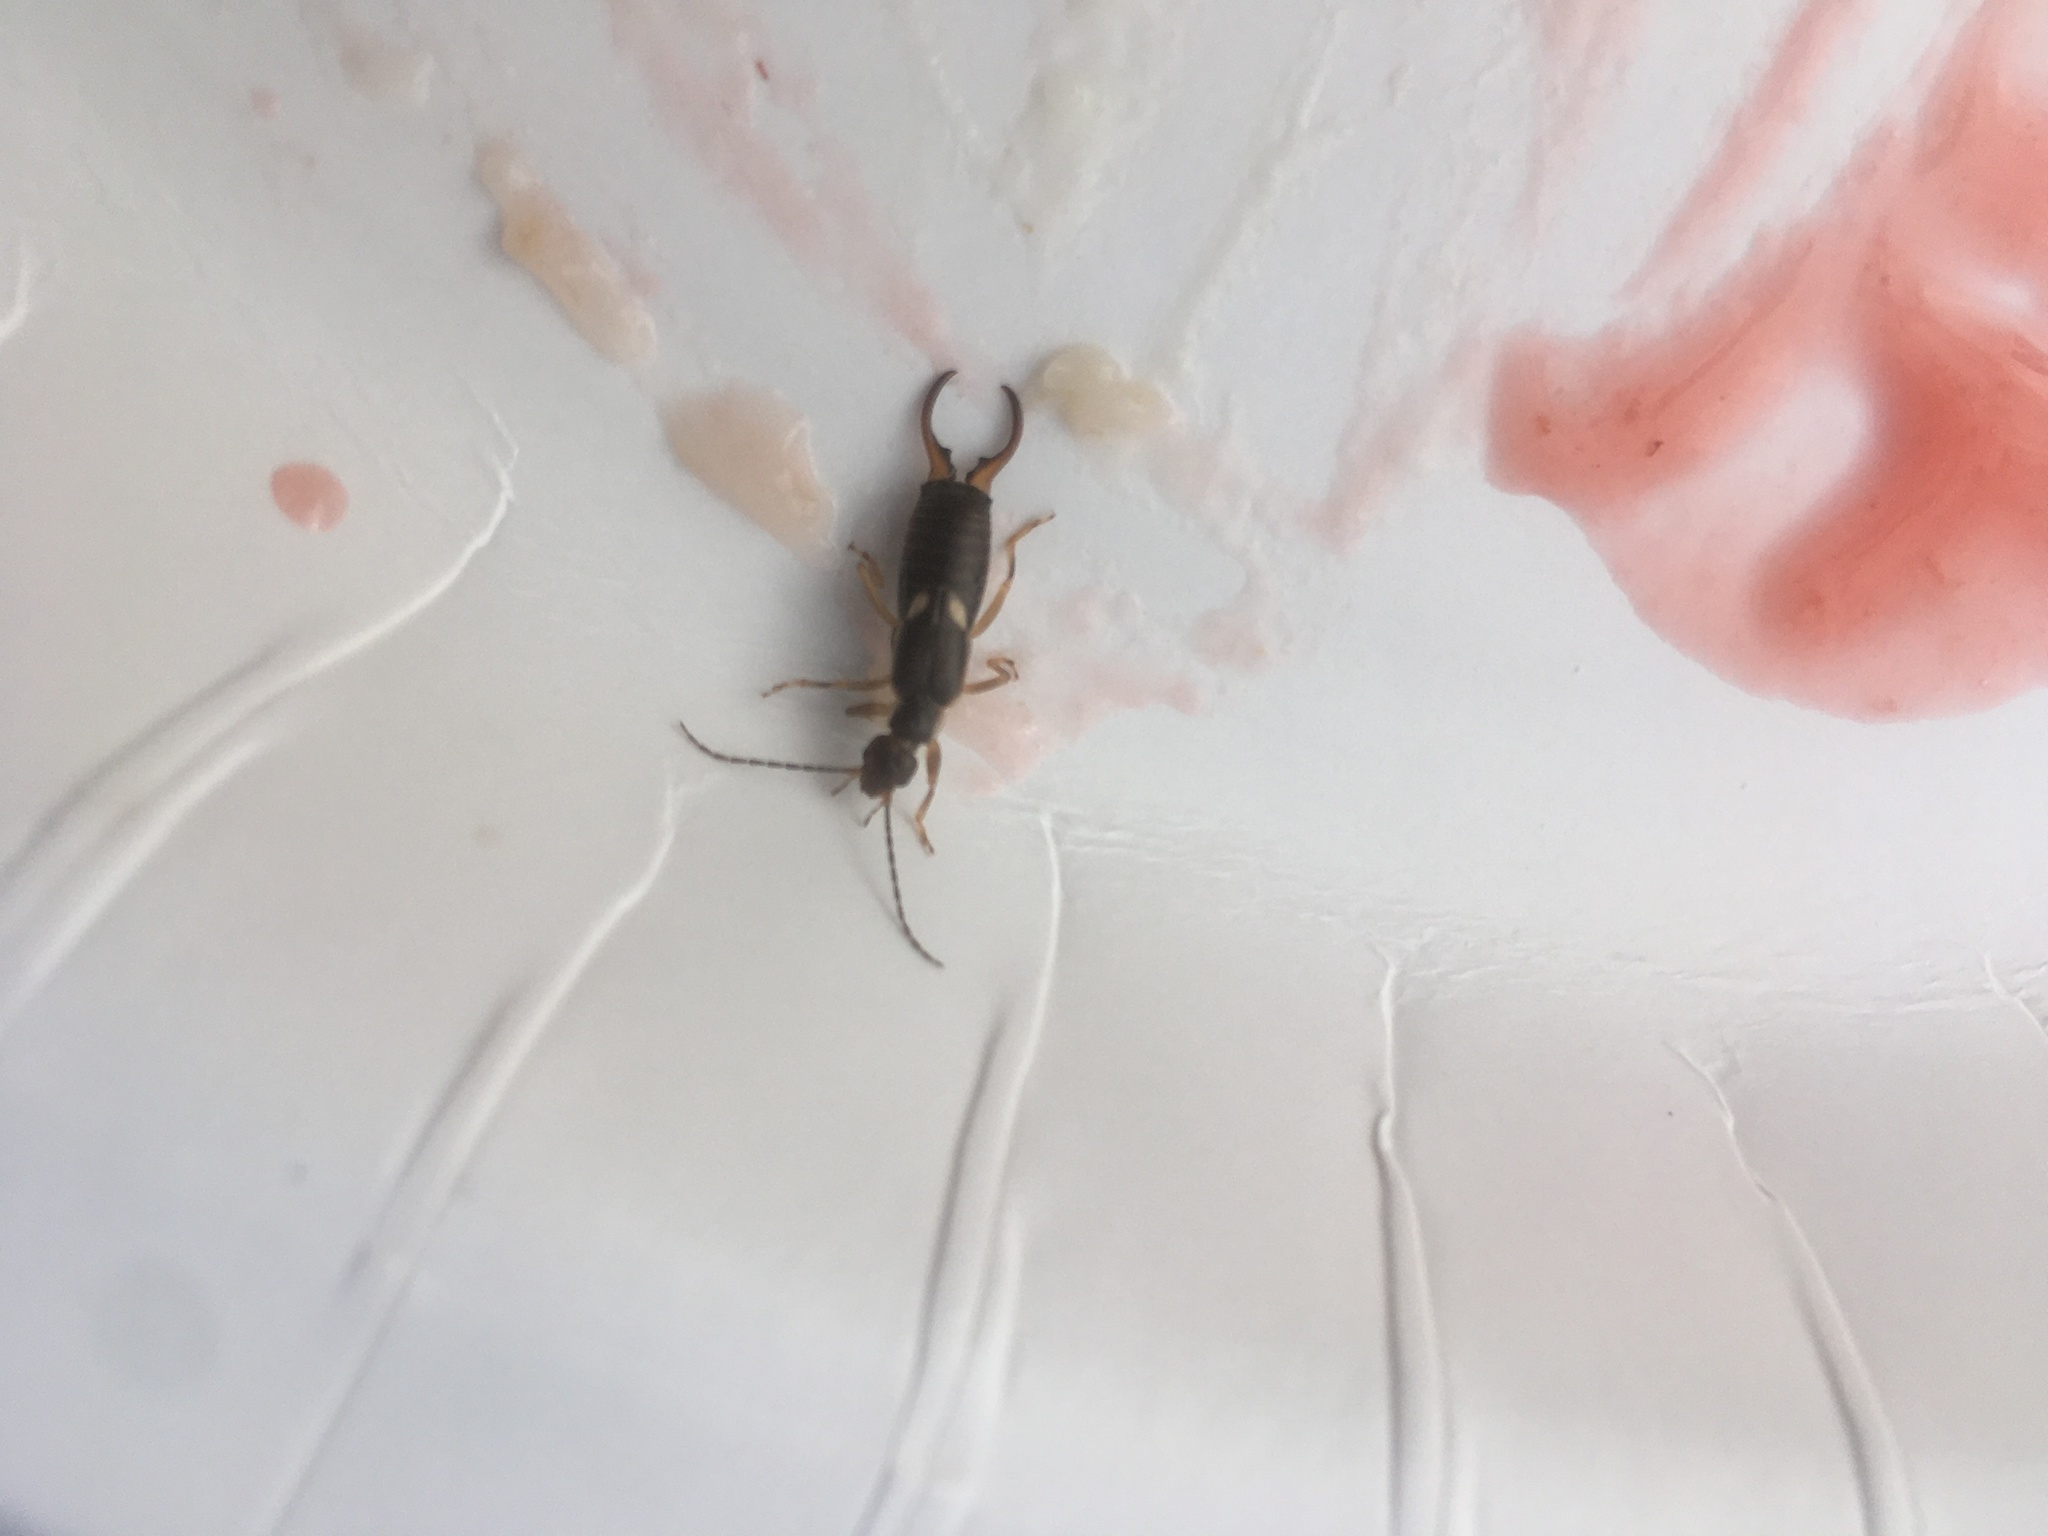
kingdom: Animalia
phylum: Arthropoda
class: Insecta
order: Dermaptera
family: Forficulidae
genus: Forficula
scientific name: Forficula
